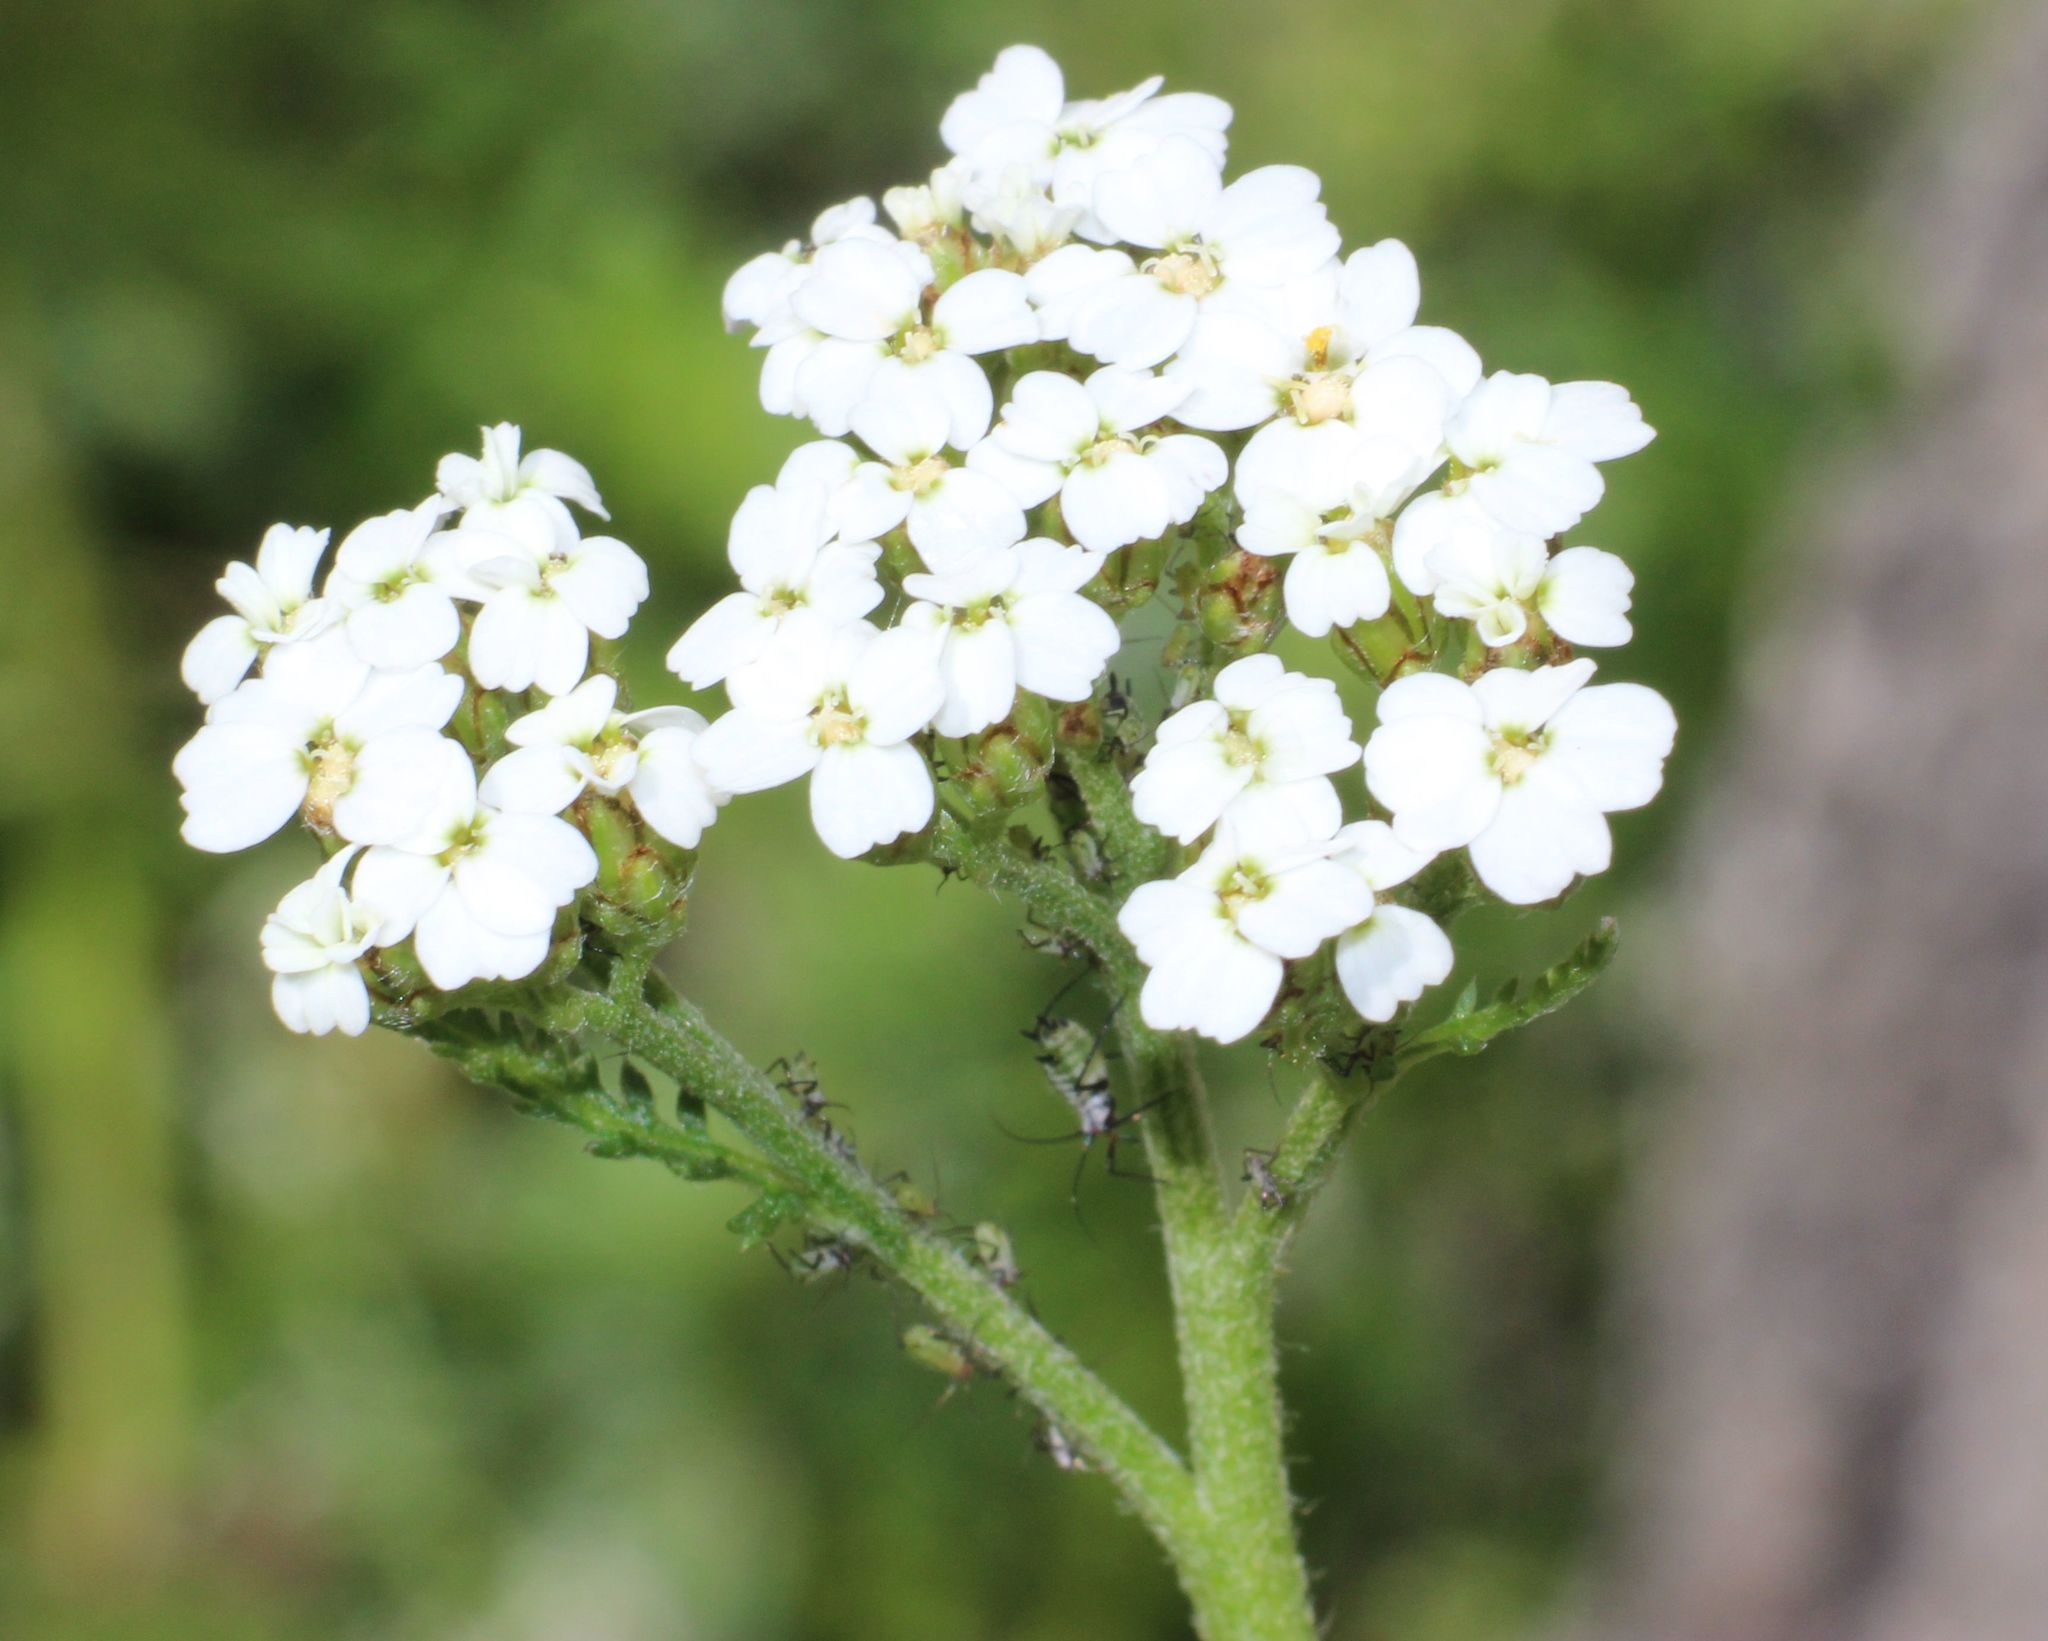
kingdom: Plantae
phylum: Tracheophyta
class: Magnoliopsida
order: Asterales
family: Asteraceae
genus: Achillea
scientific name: Achillea millefolium
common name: Yarrow
